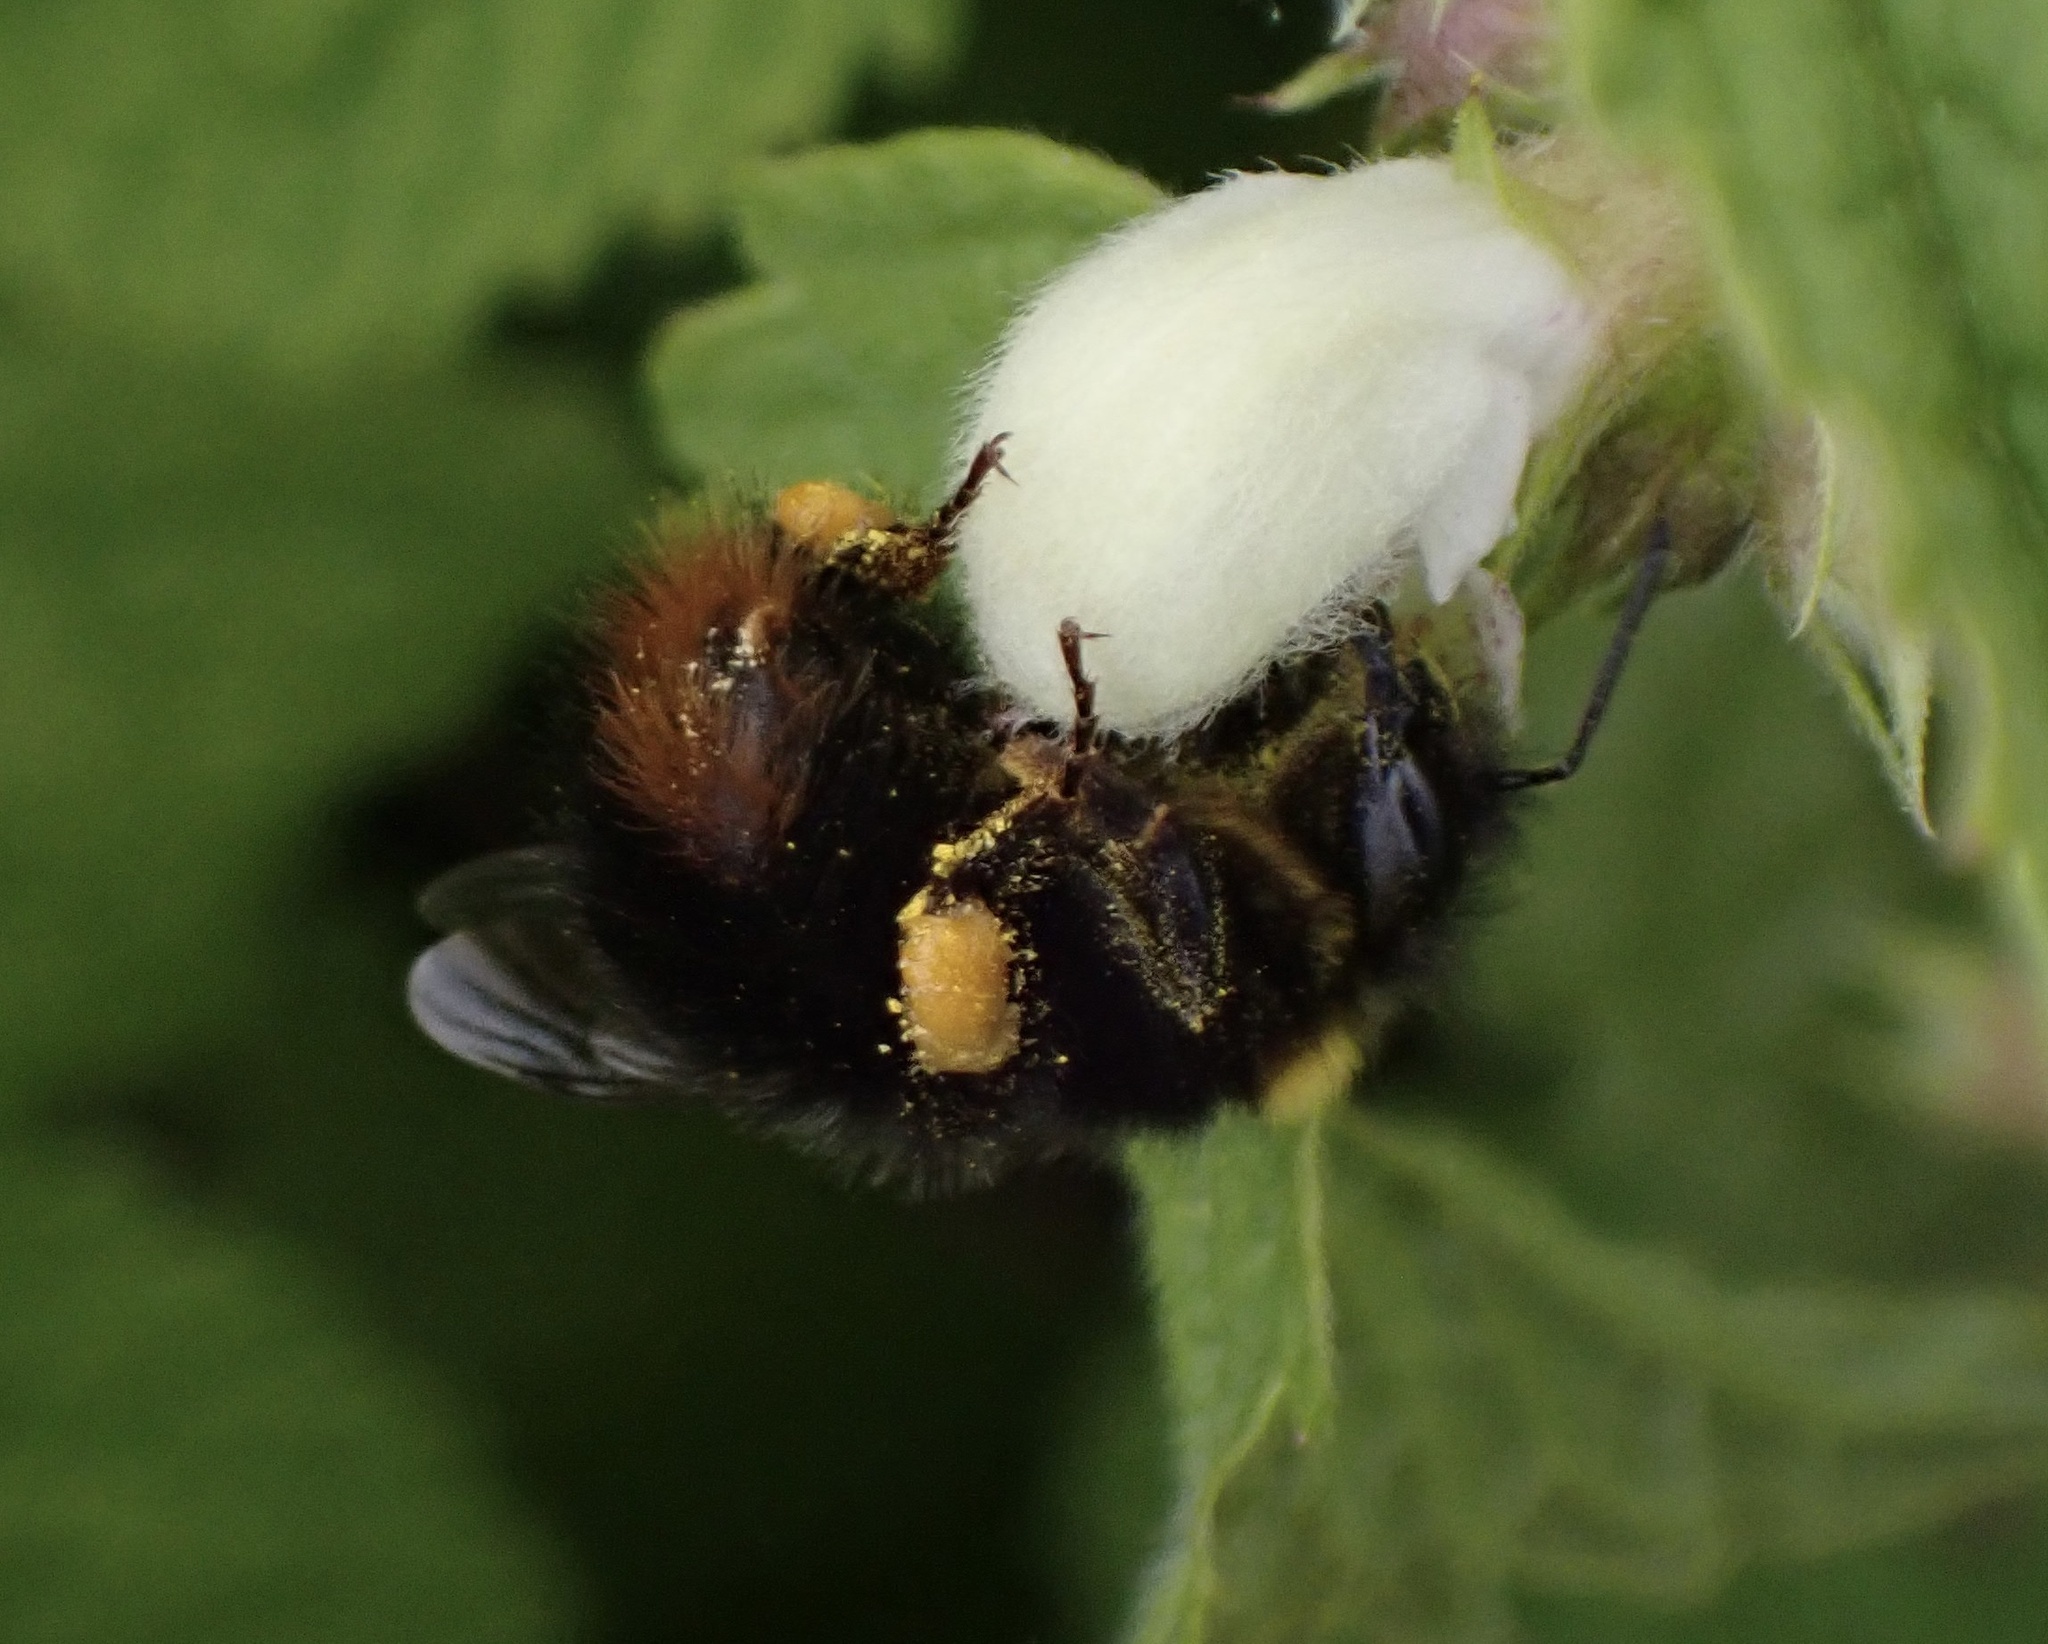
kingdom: Animalia
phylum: Arthropoda
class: Insecta
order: Hymenoptera
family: Apidae
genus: Bombus
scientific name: Bombus pratorum
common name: Early humble-bee
